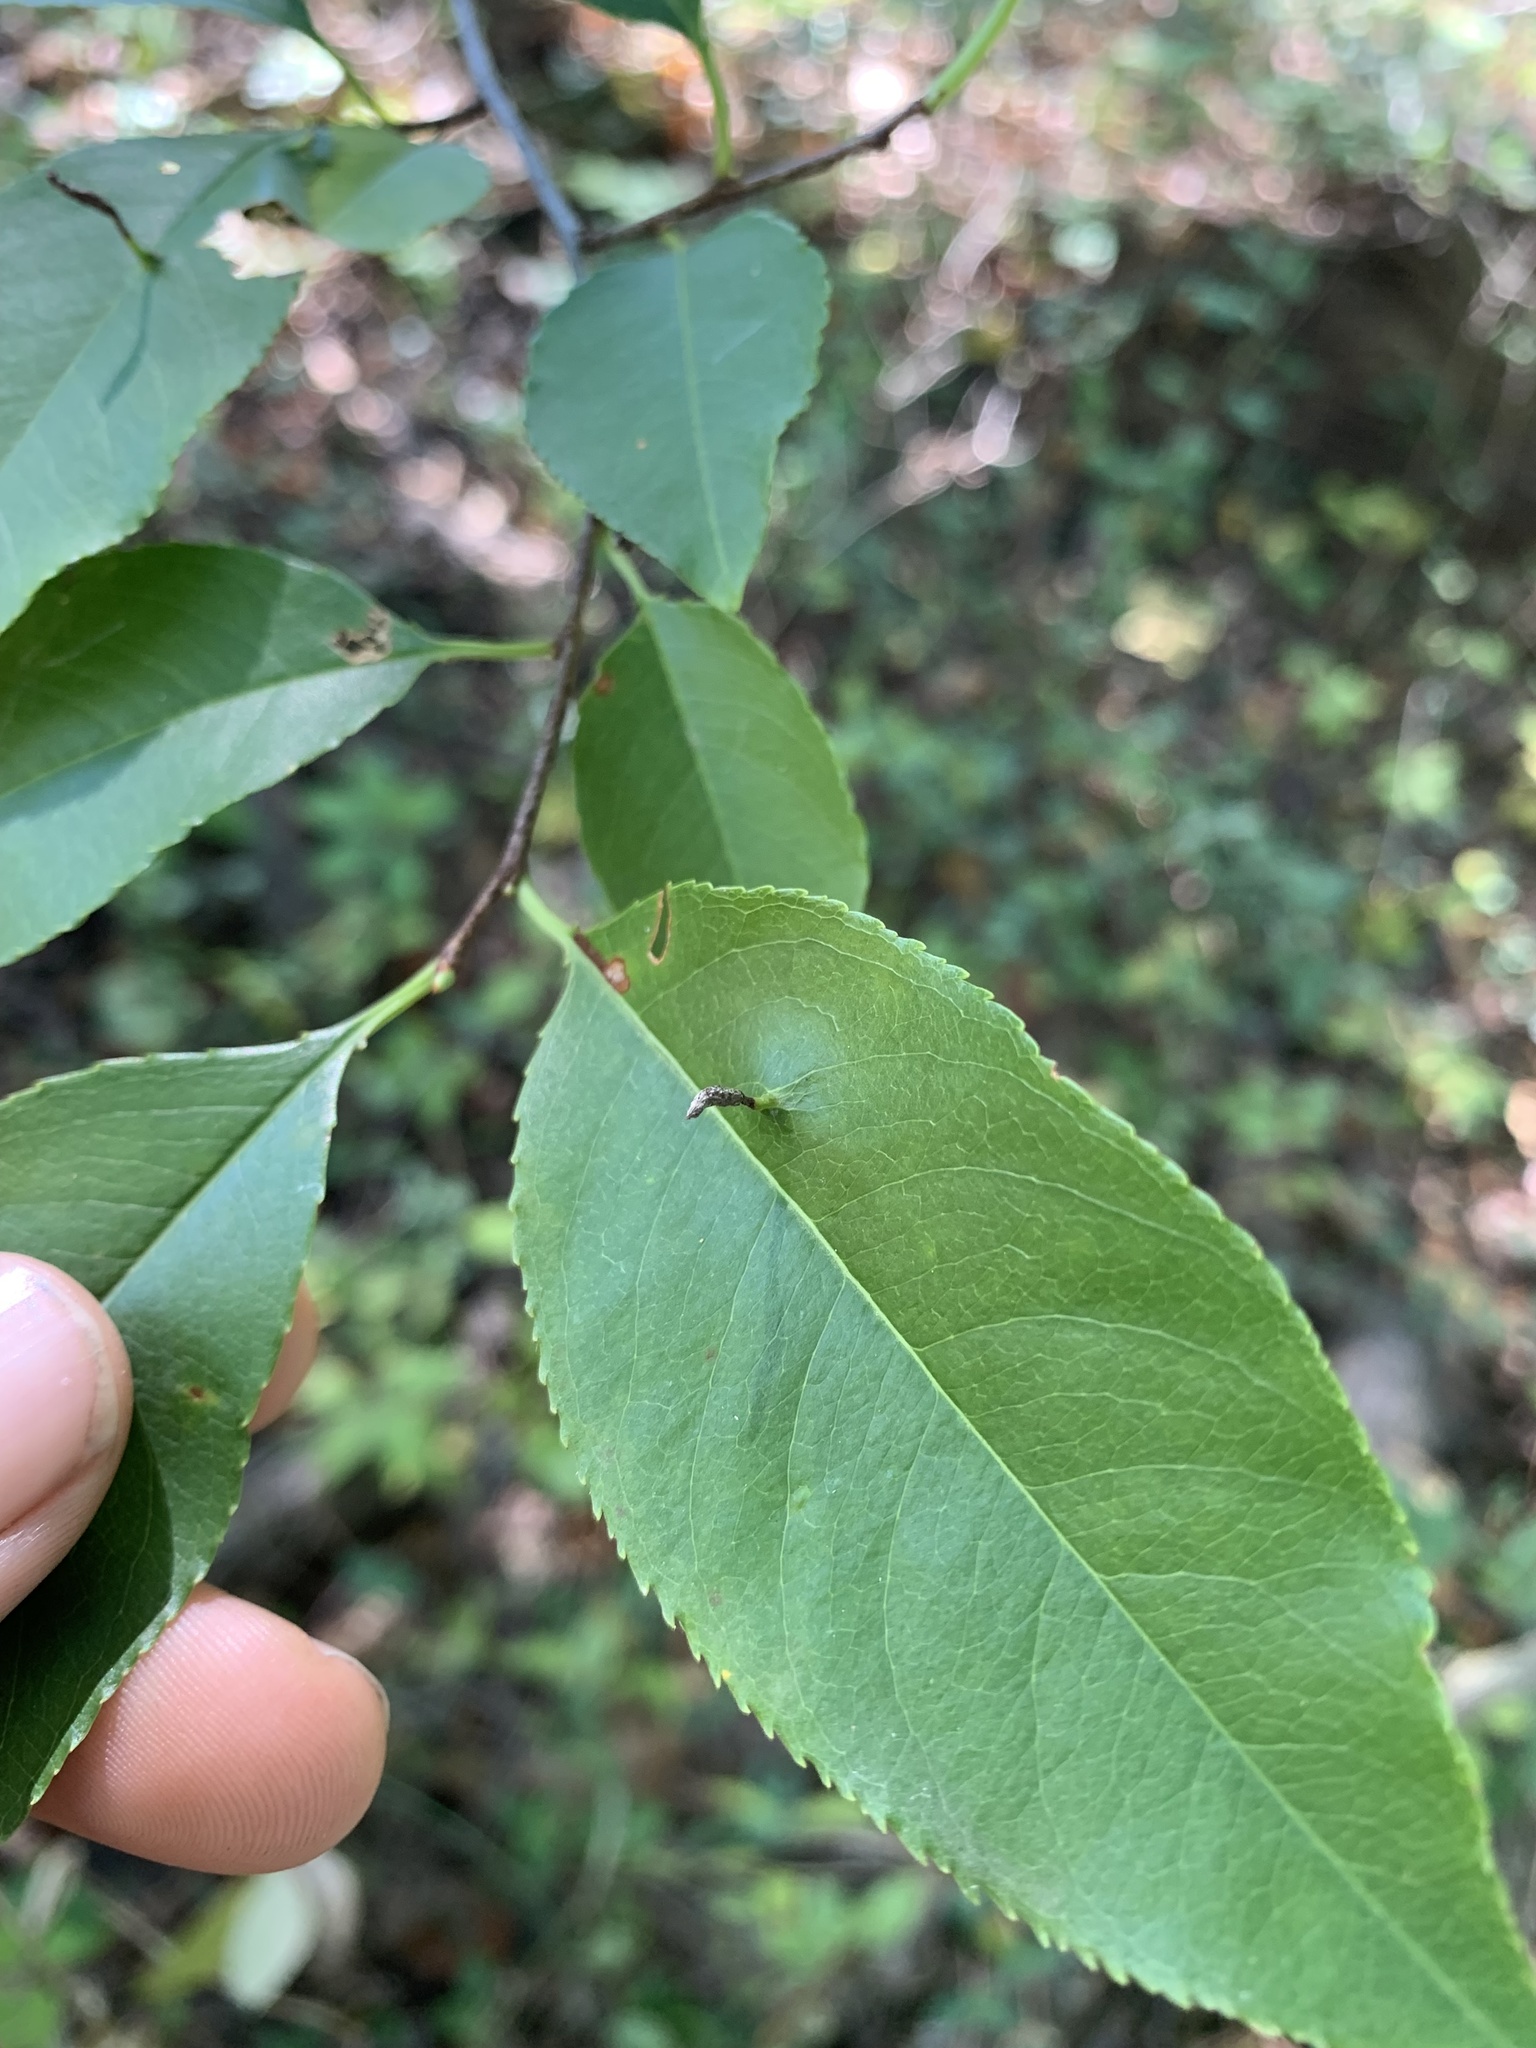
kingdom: Animalia
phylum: Arthropoda
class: Arachnida
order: Trombidiformes
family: Eriophyidae
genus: Eriophyes
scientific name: Eriophyes
